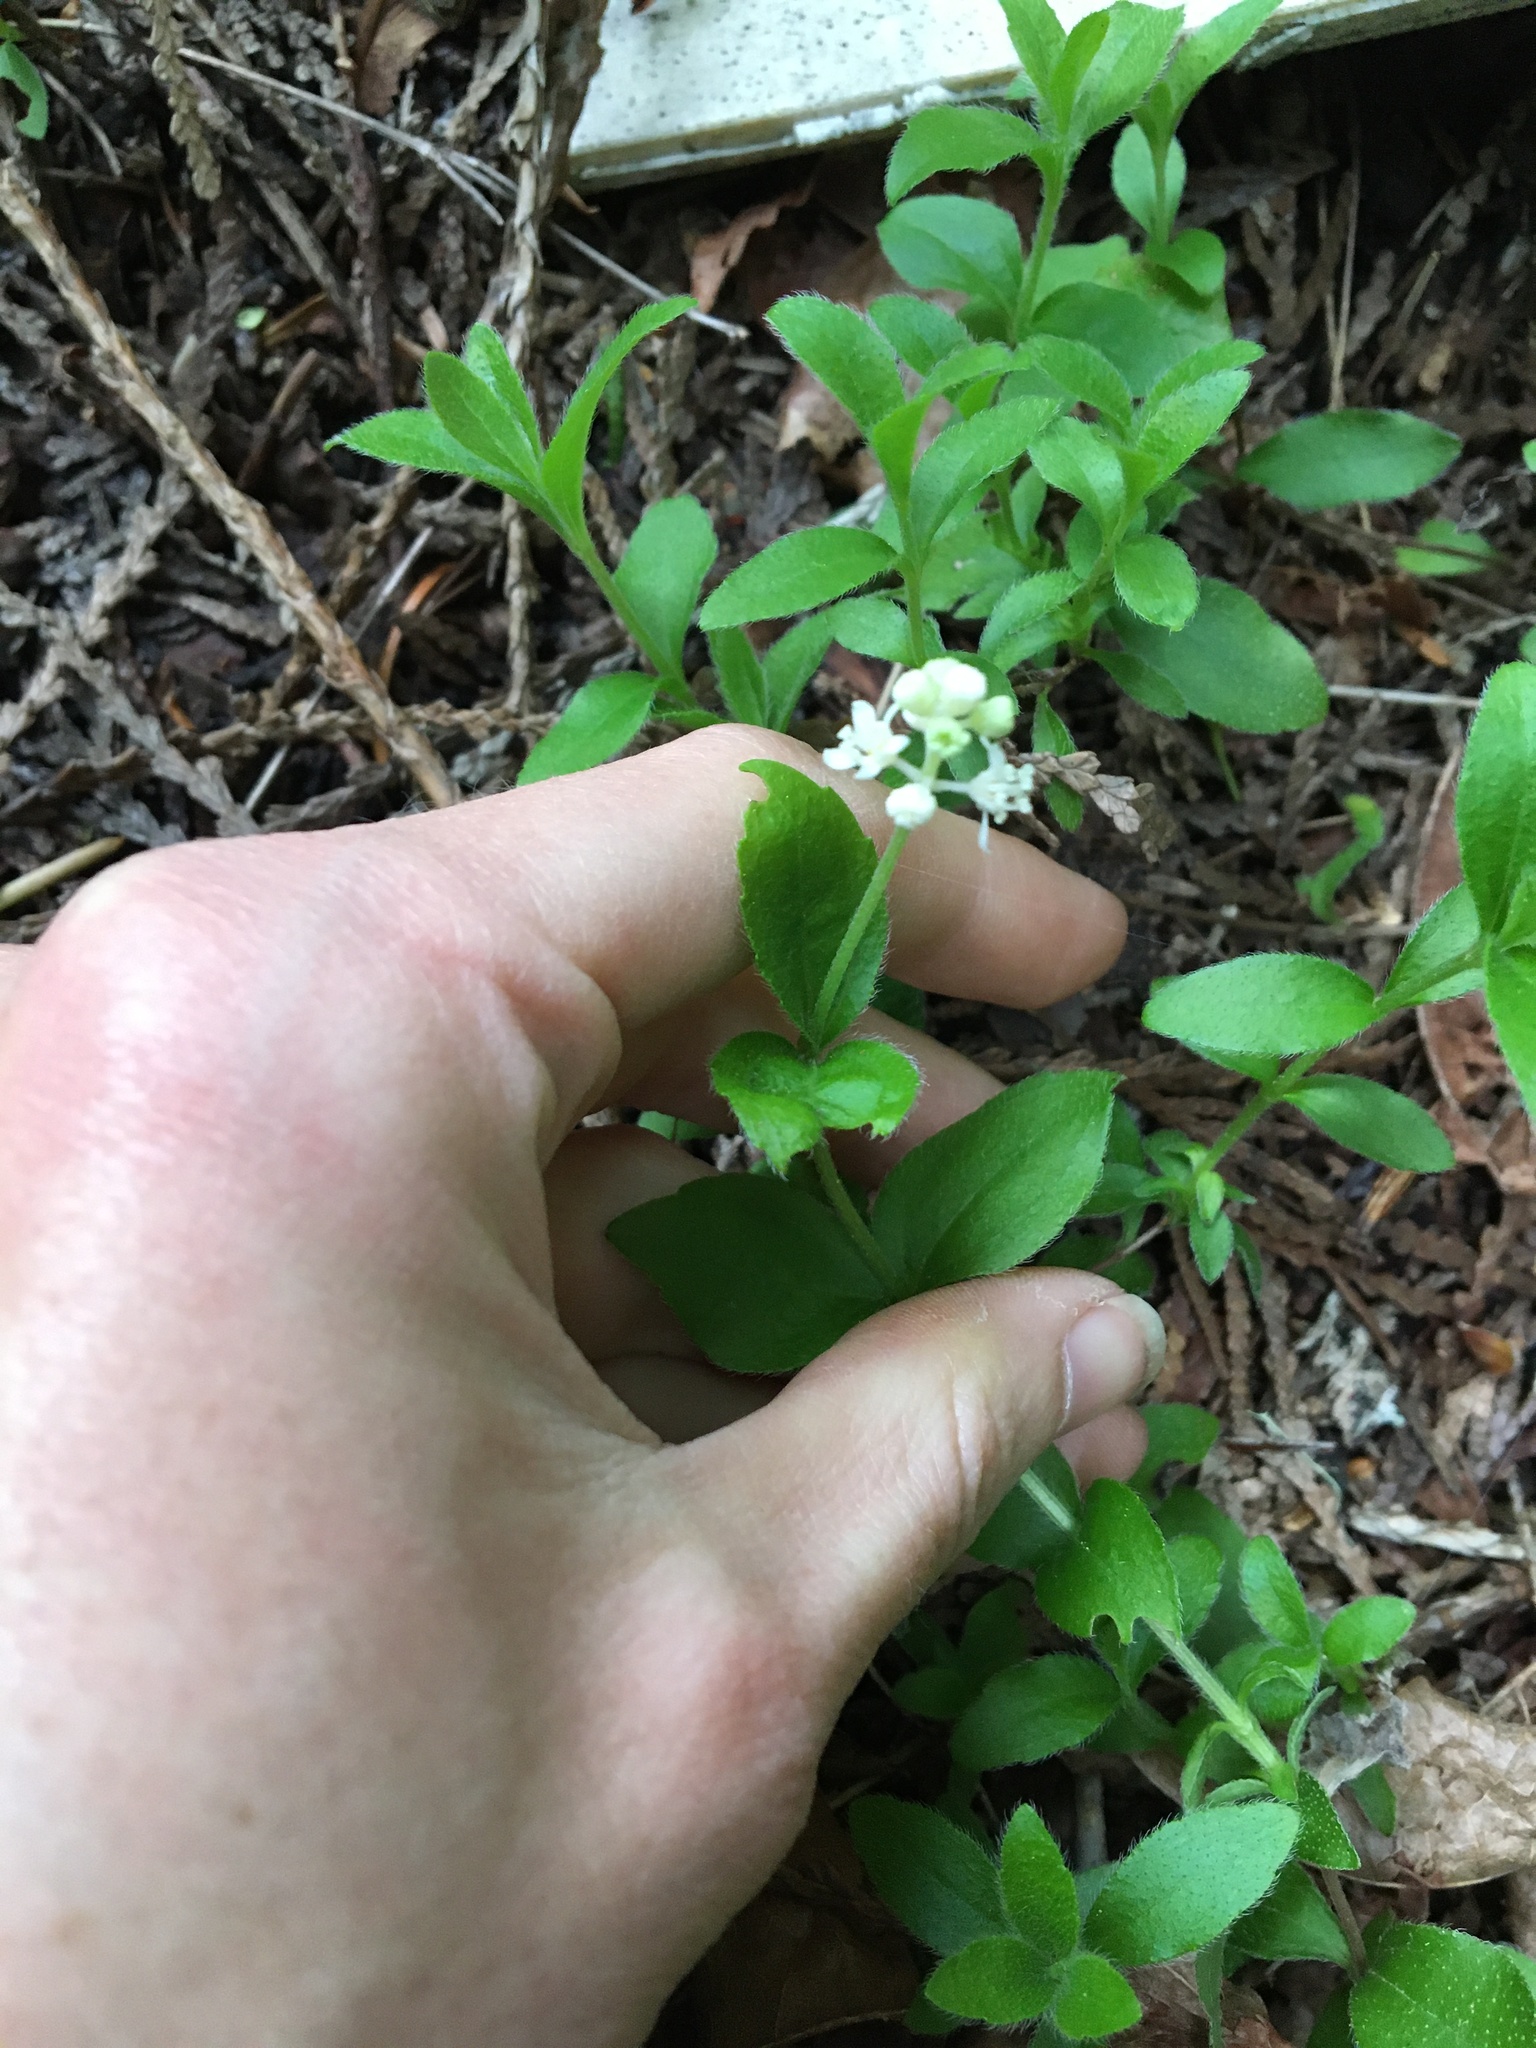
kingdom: Plantae
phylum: Tracheophyta
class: Magnoliopsida
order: Cornales
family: Hydrangeaceae
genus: Whipplea
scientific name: Whipplea modesta
